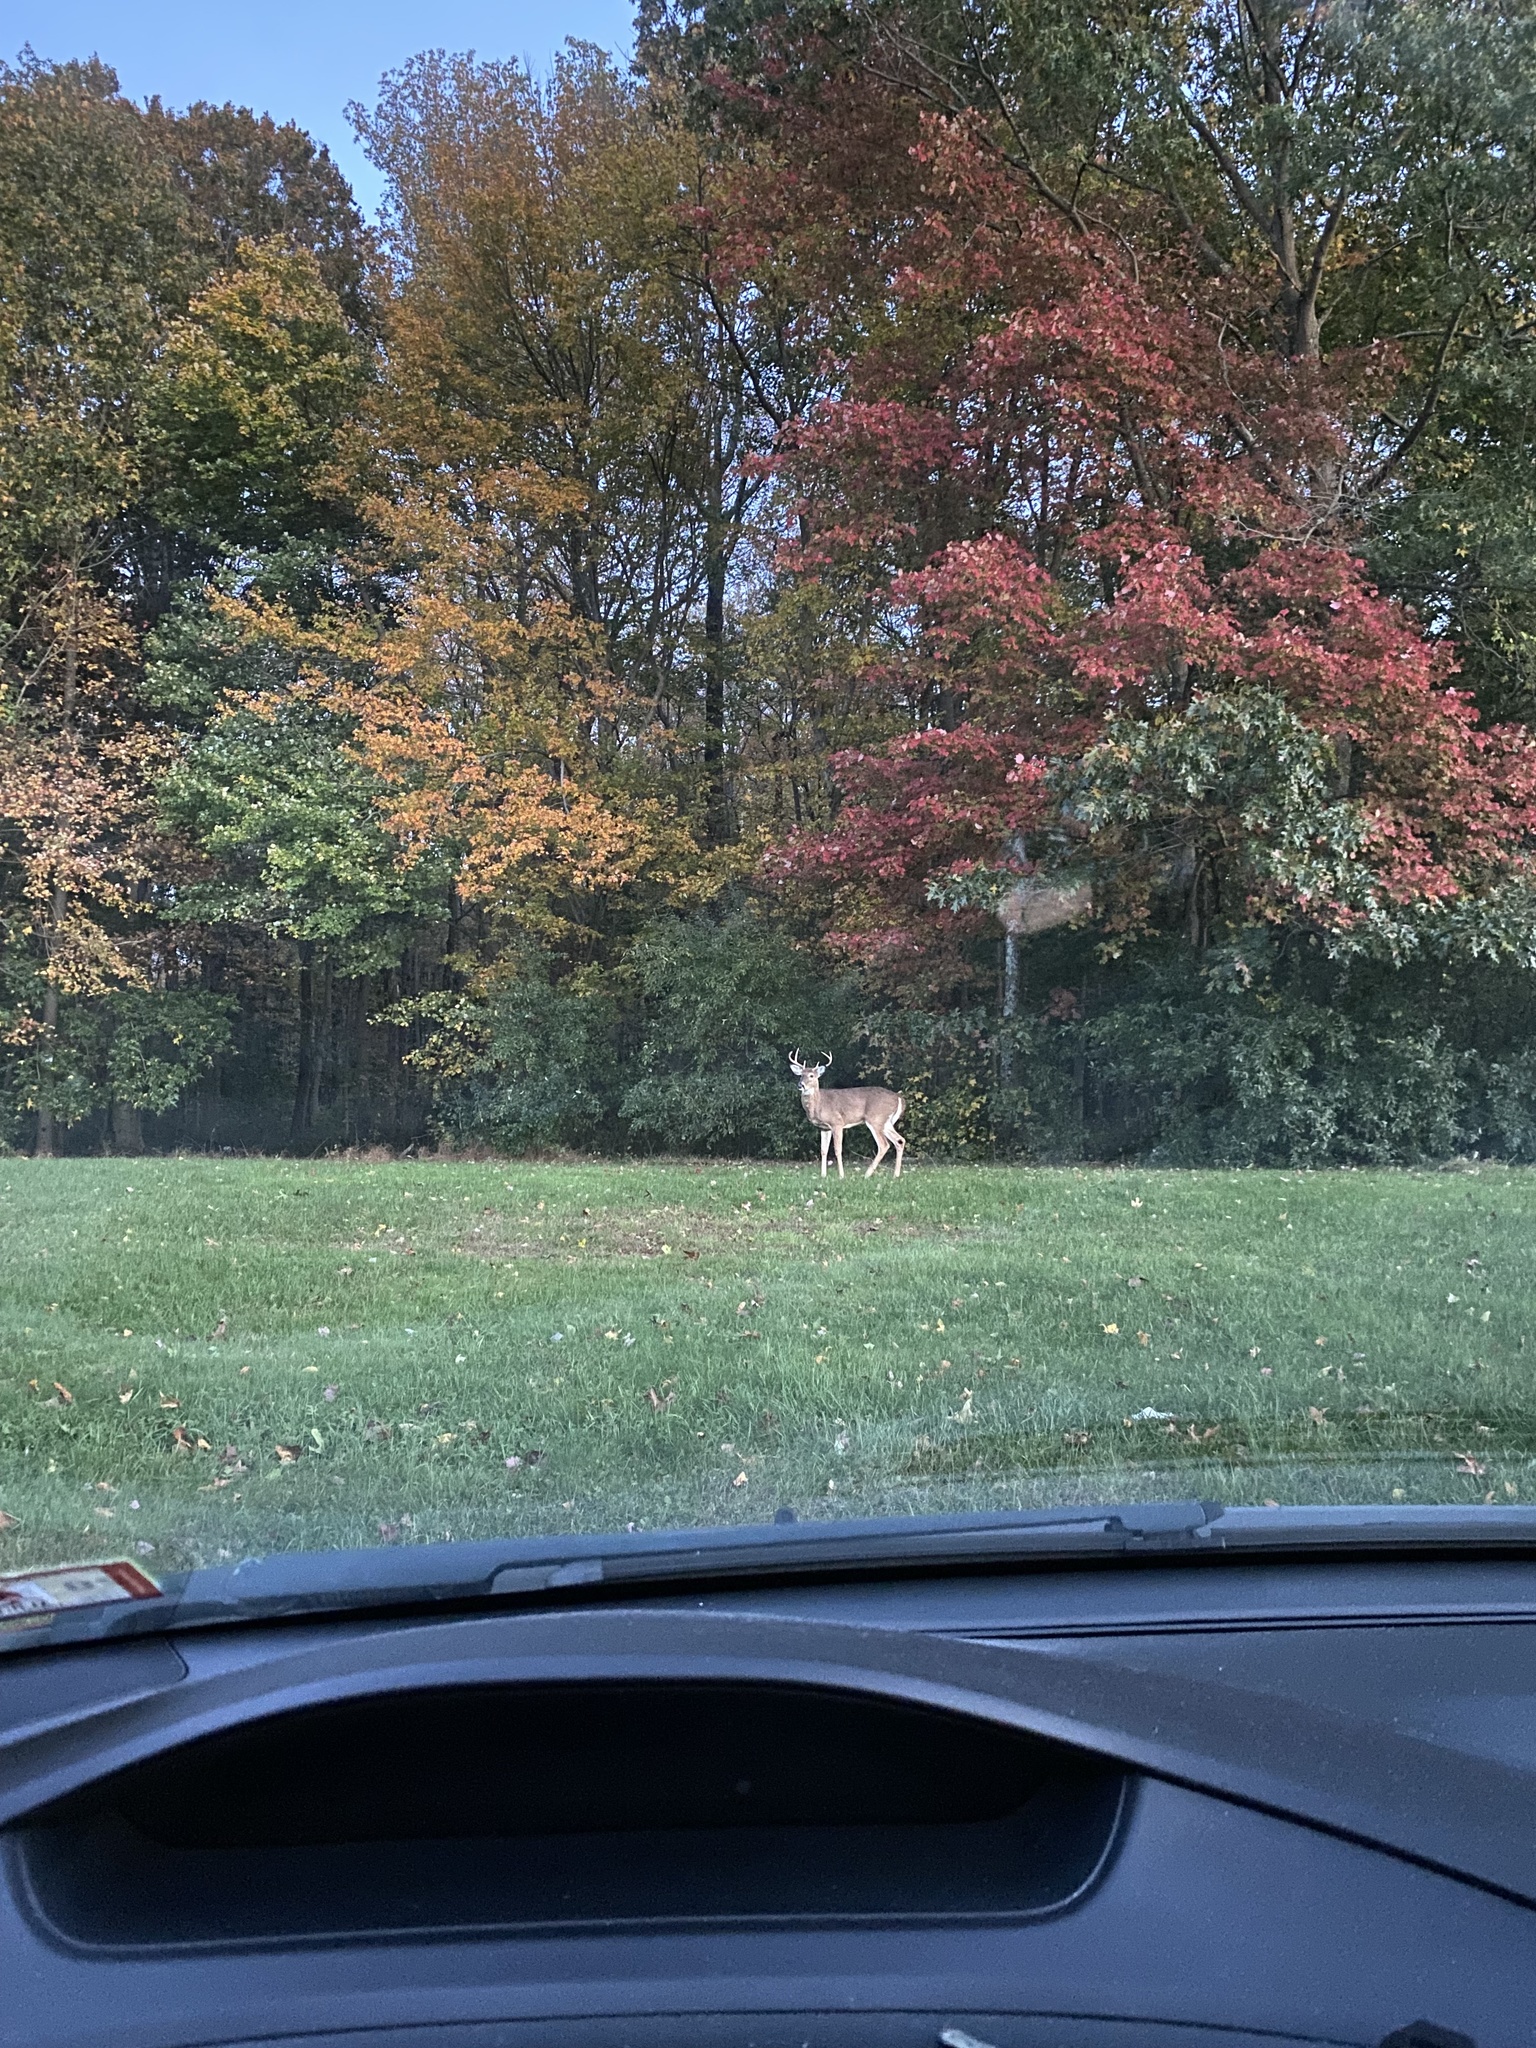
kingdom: Animalia
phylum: Chordata
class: Mammalia
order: Artiodactyla
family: Cervidae
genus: Odocoileus
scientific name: Odocoileus virginianus
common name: White-tailed deer
